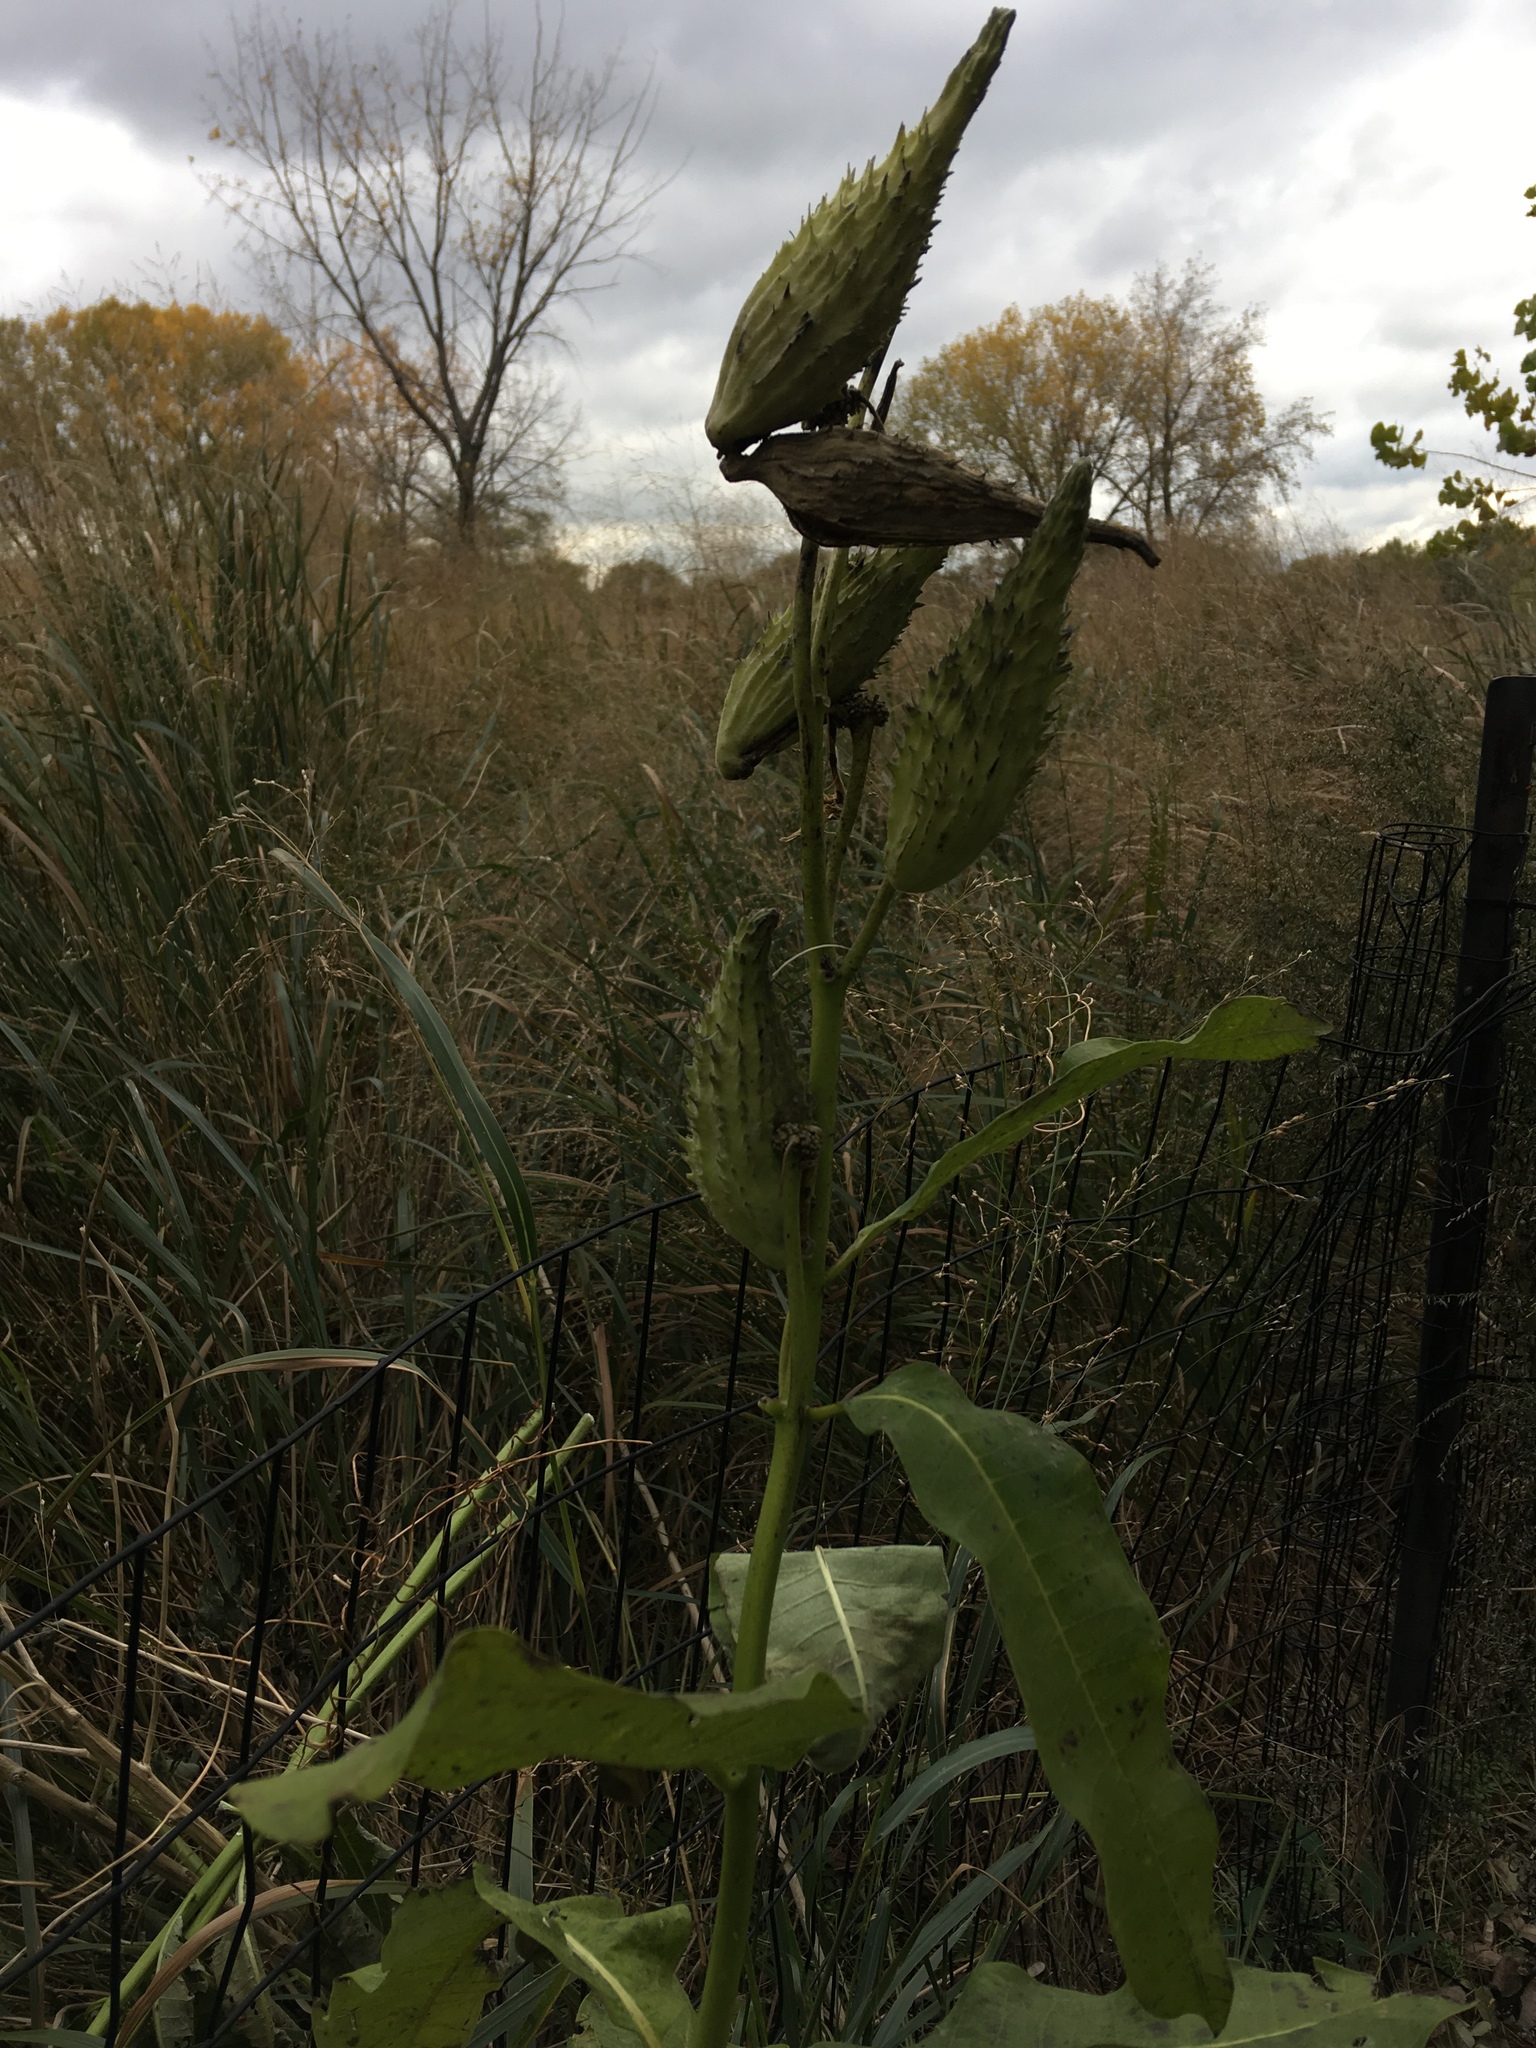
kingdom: Plantae
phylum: Tracheophyta
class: Magnoliopsida
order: Gentianales
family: Apocynaceae
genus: Asclepias
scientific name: Asclepias syriaca
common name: Common milkweed
